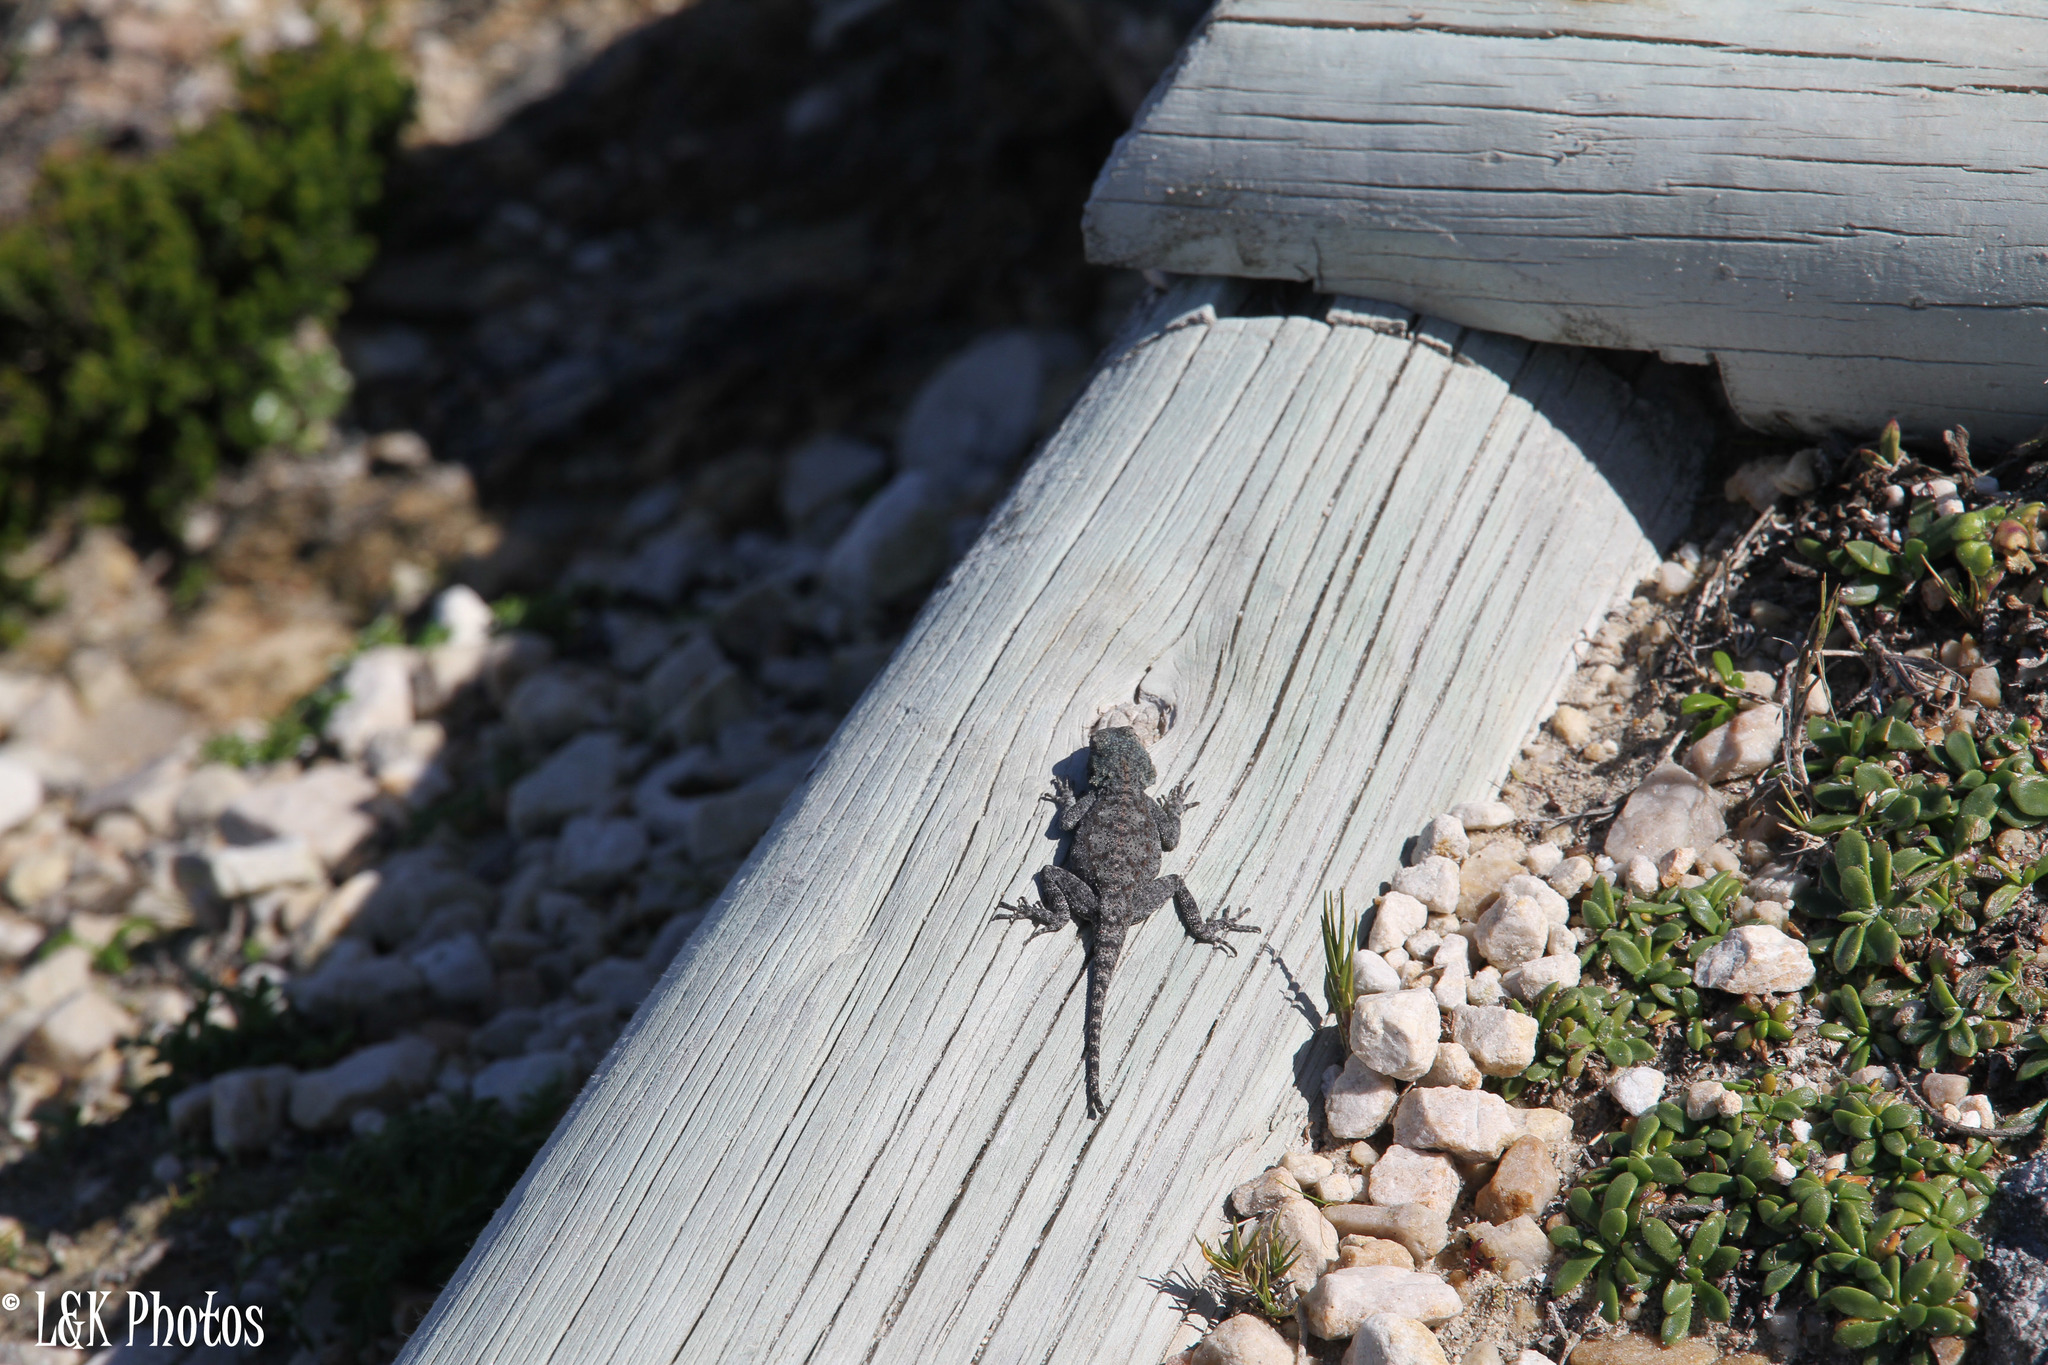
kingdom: Animalia
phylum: Chordata
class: Squamata
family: Agamidae
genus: Agama
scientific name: Agama atra
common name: Southern african rock agama
